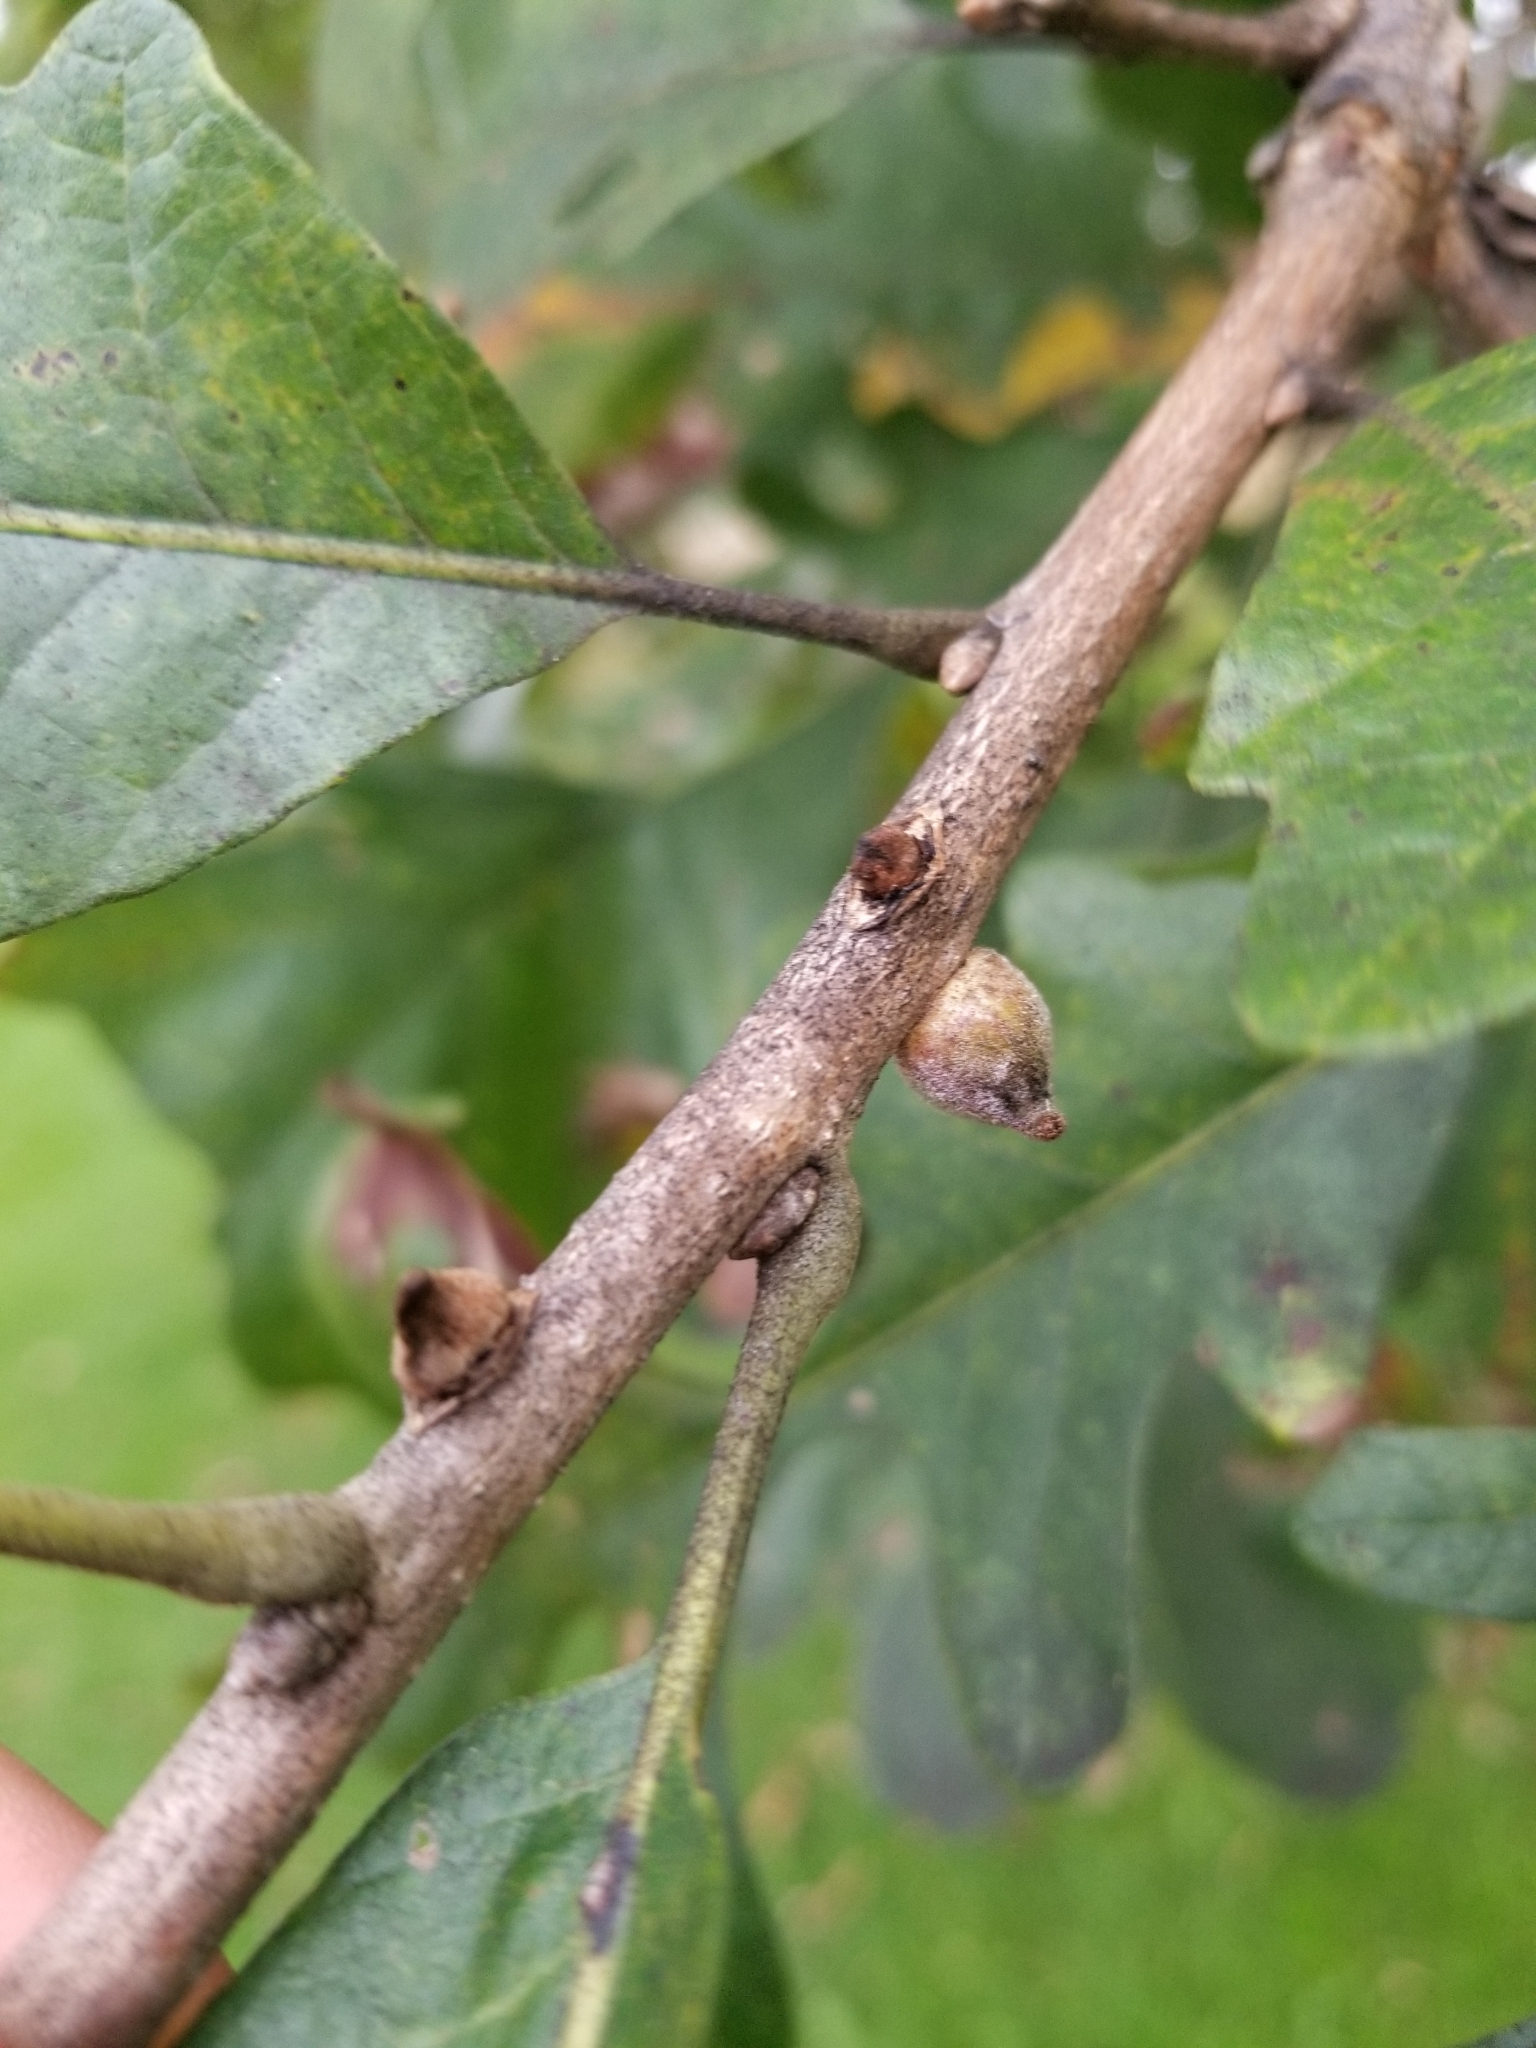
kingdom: Animalia
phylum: Arthropoda
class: Insecta
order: Hymenoptera
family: Cynipidae
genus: Disholcaspis
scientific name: Disholcaspis
